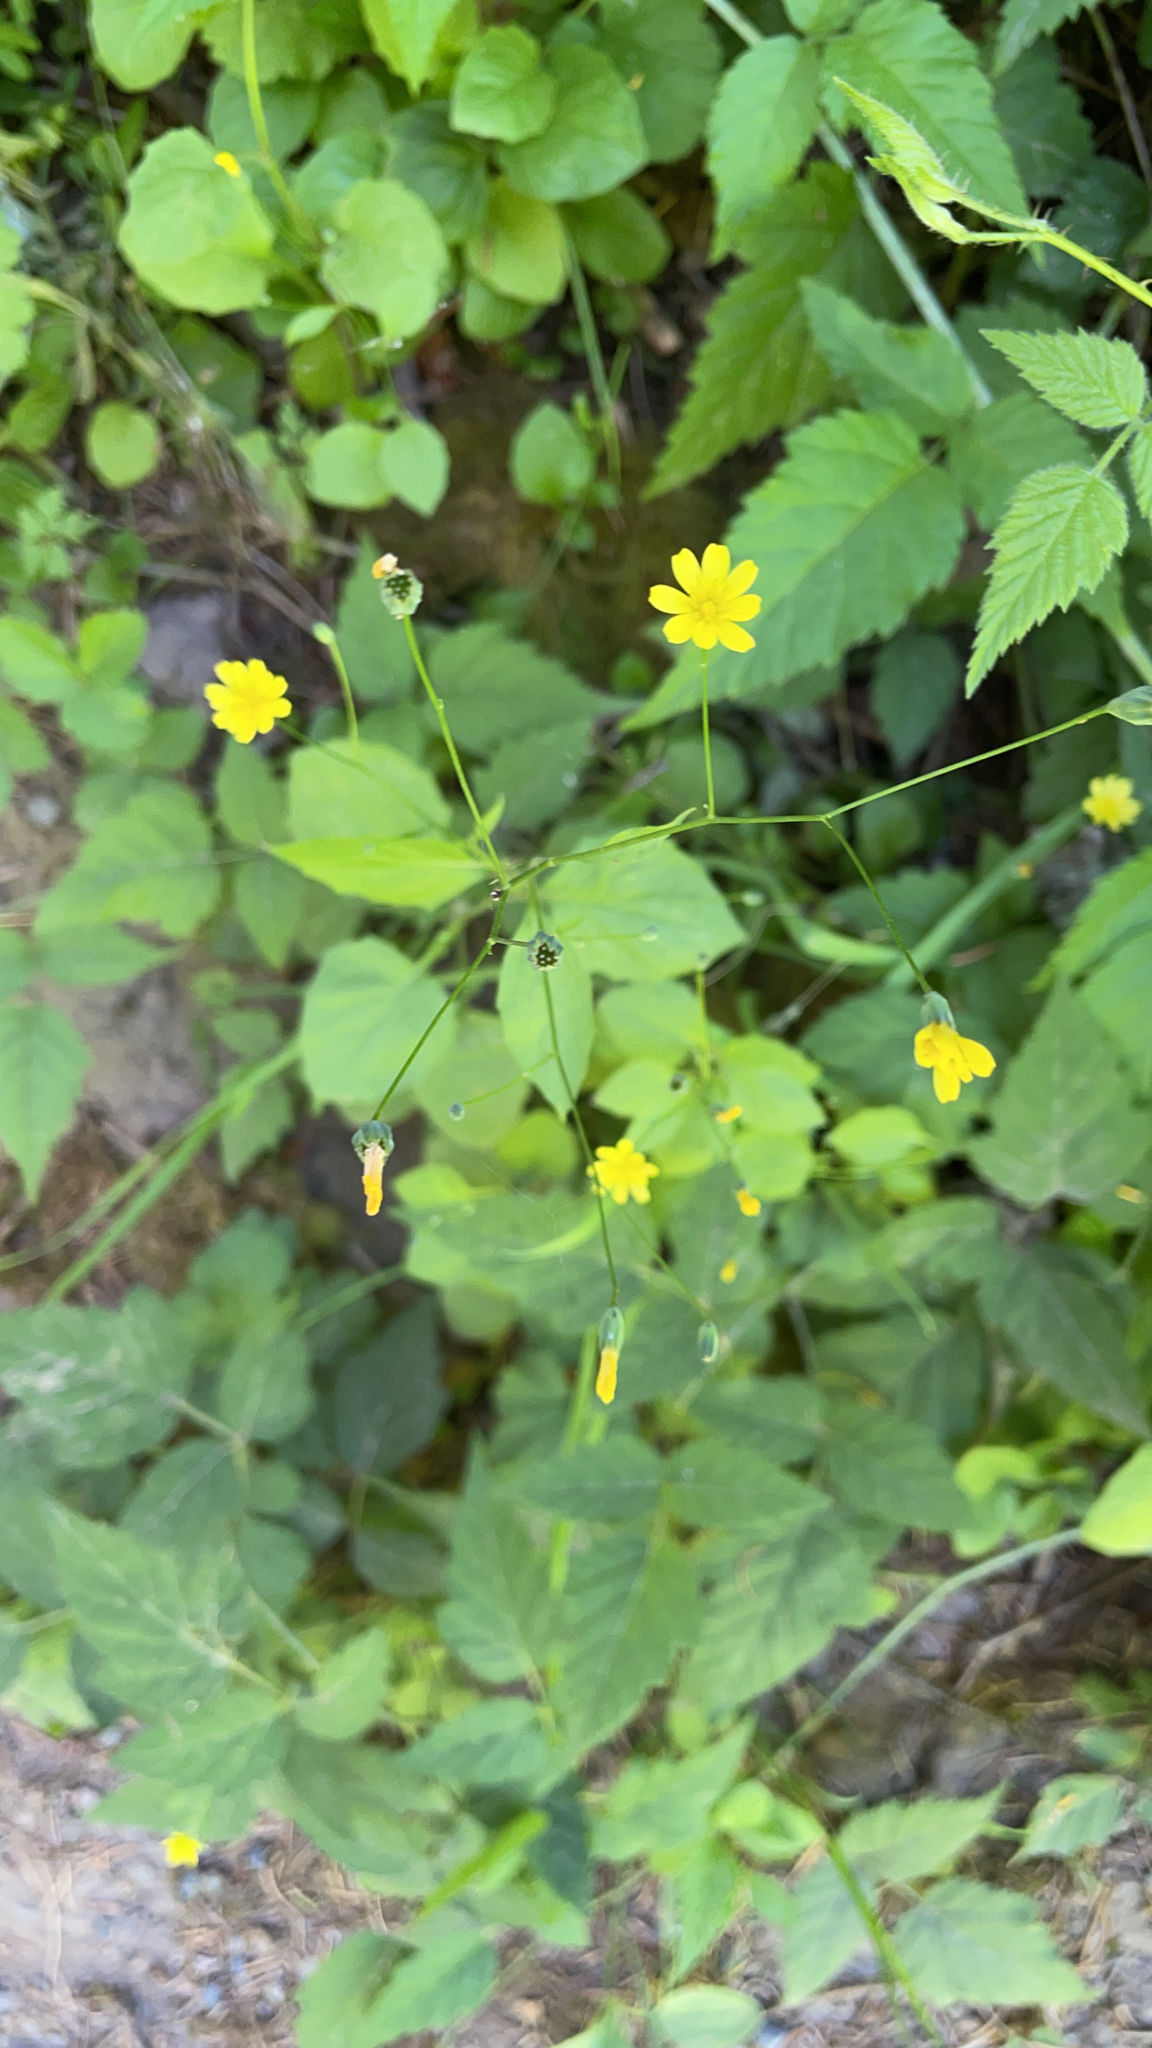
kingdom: Plantae
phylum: Tracheophyta
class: Magnoliopsida
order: Asterales
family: Asteraceae
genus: Lapsana
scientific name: Lapsana communis
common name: Nipplewort
